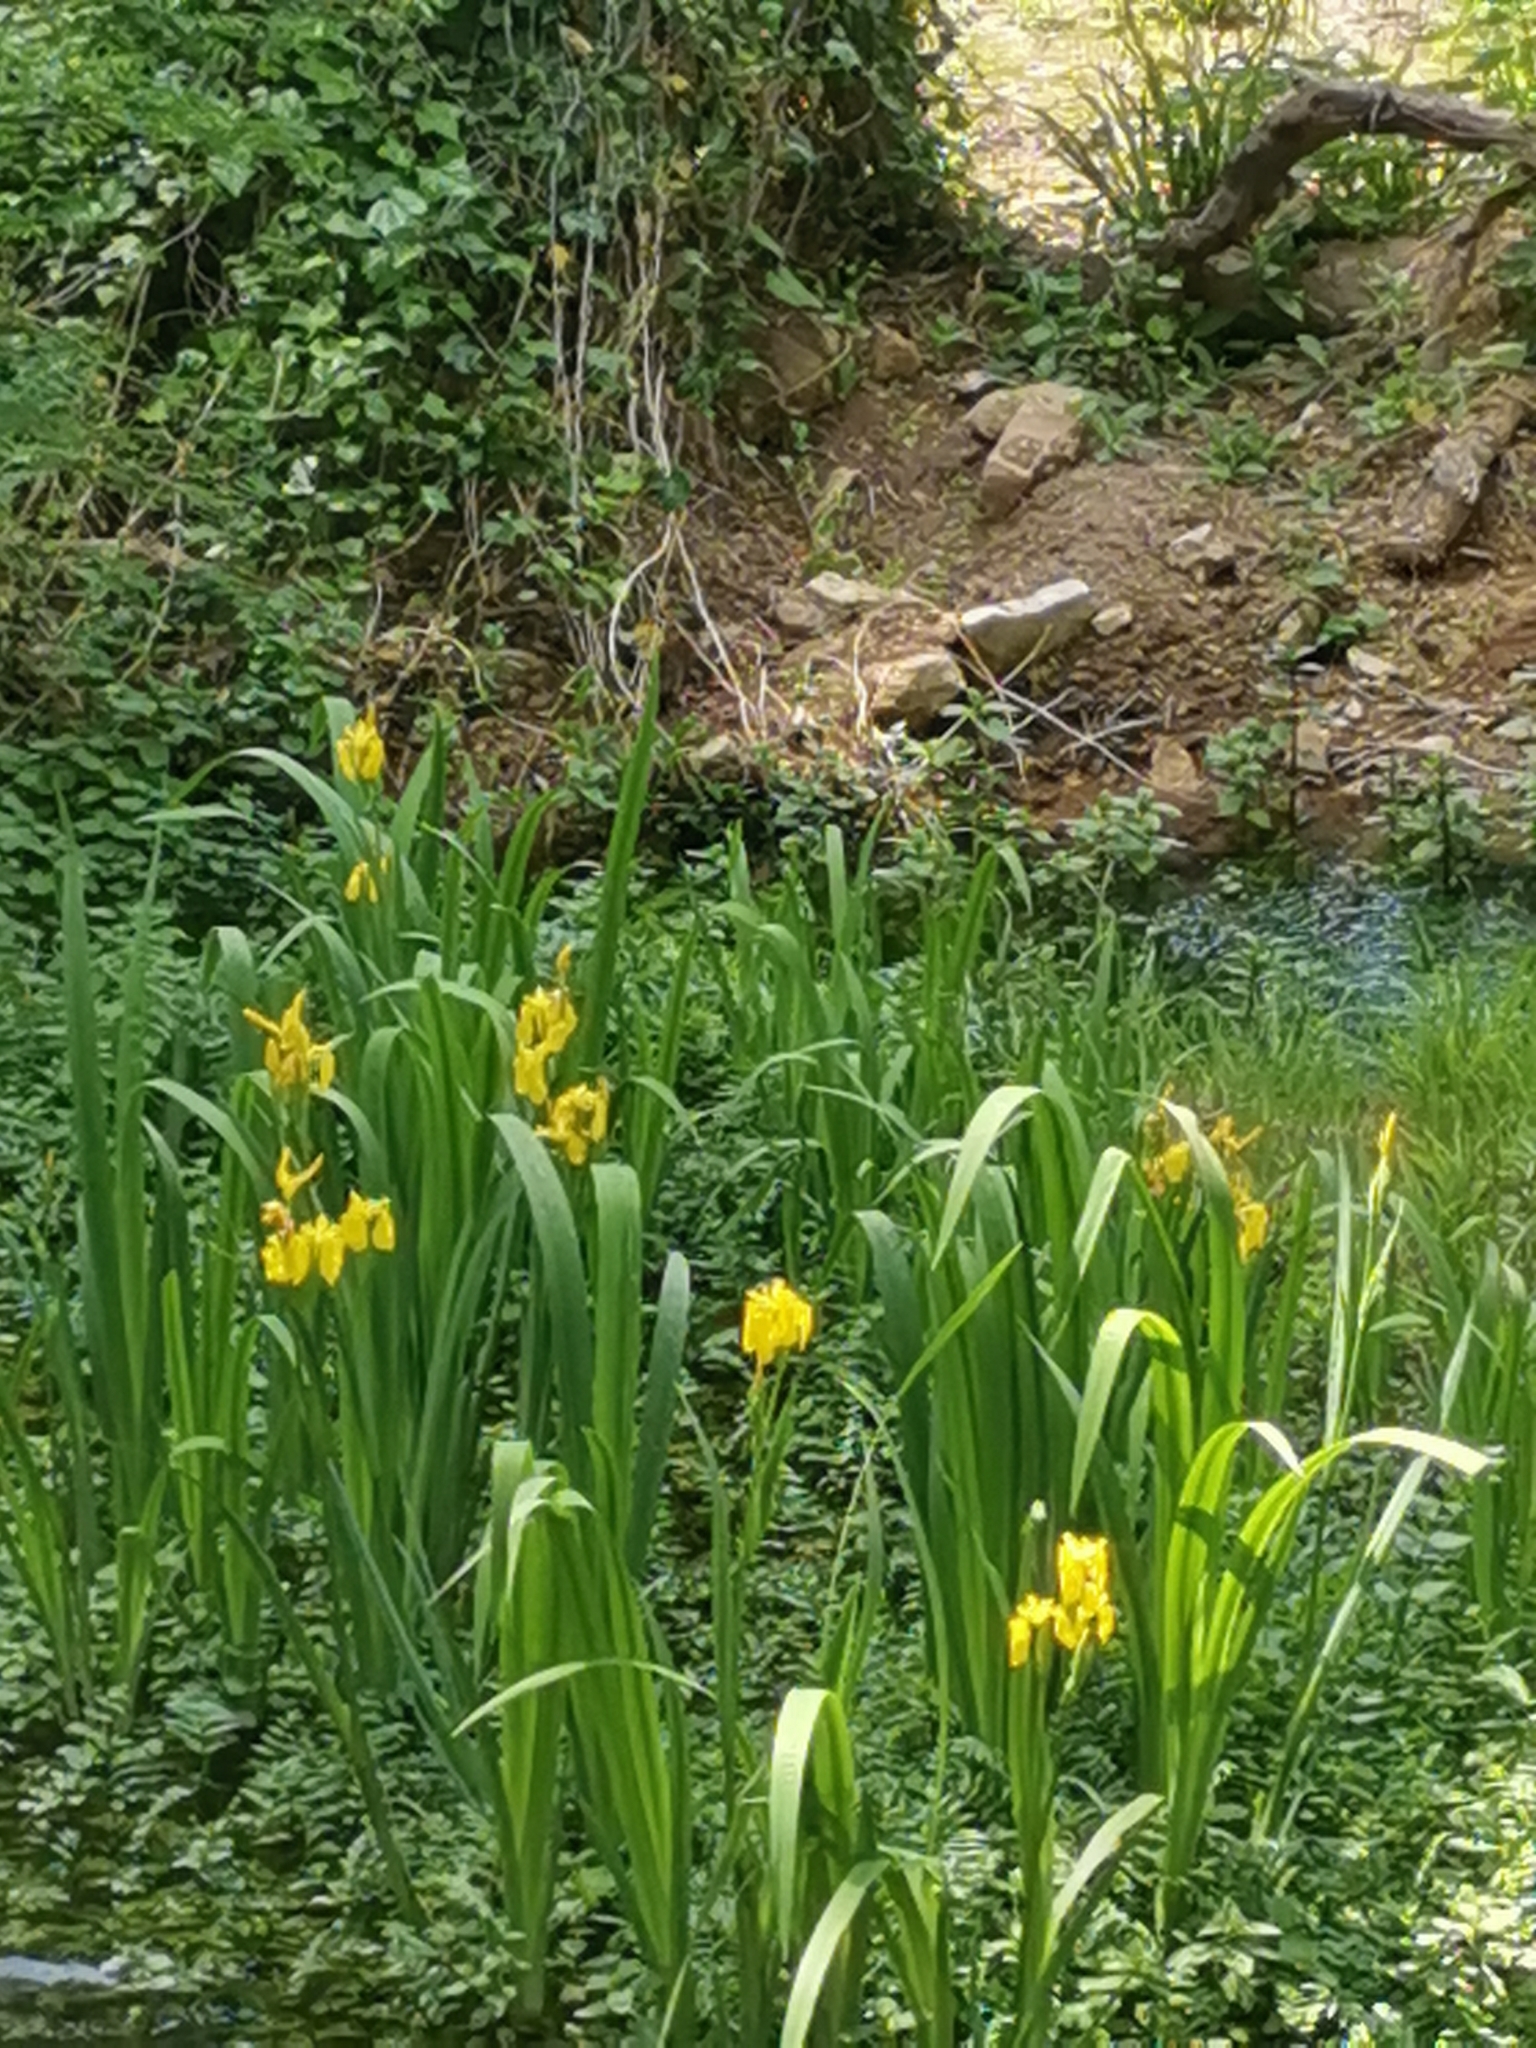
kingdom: Plantae
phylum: Tracheophyta
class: Liliopsida
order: Asparagales
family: Iridaceae
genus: Iris
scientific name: Iris pseudacorus
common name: Yellow flag
